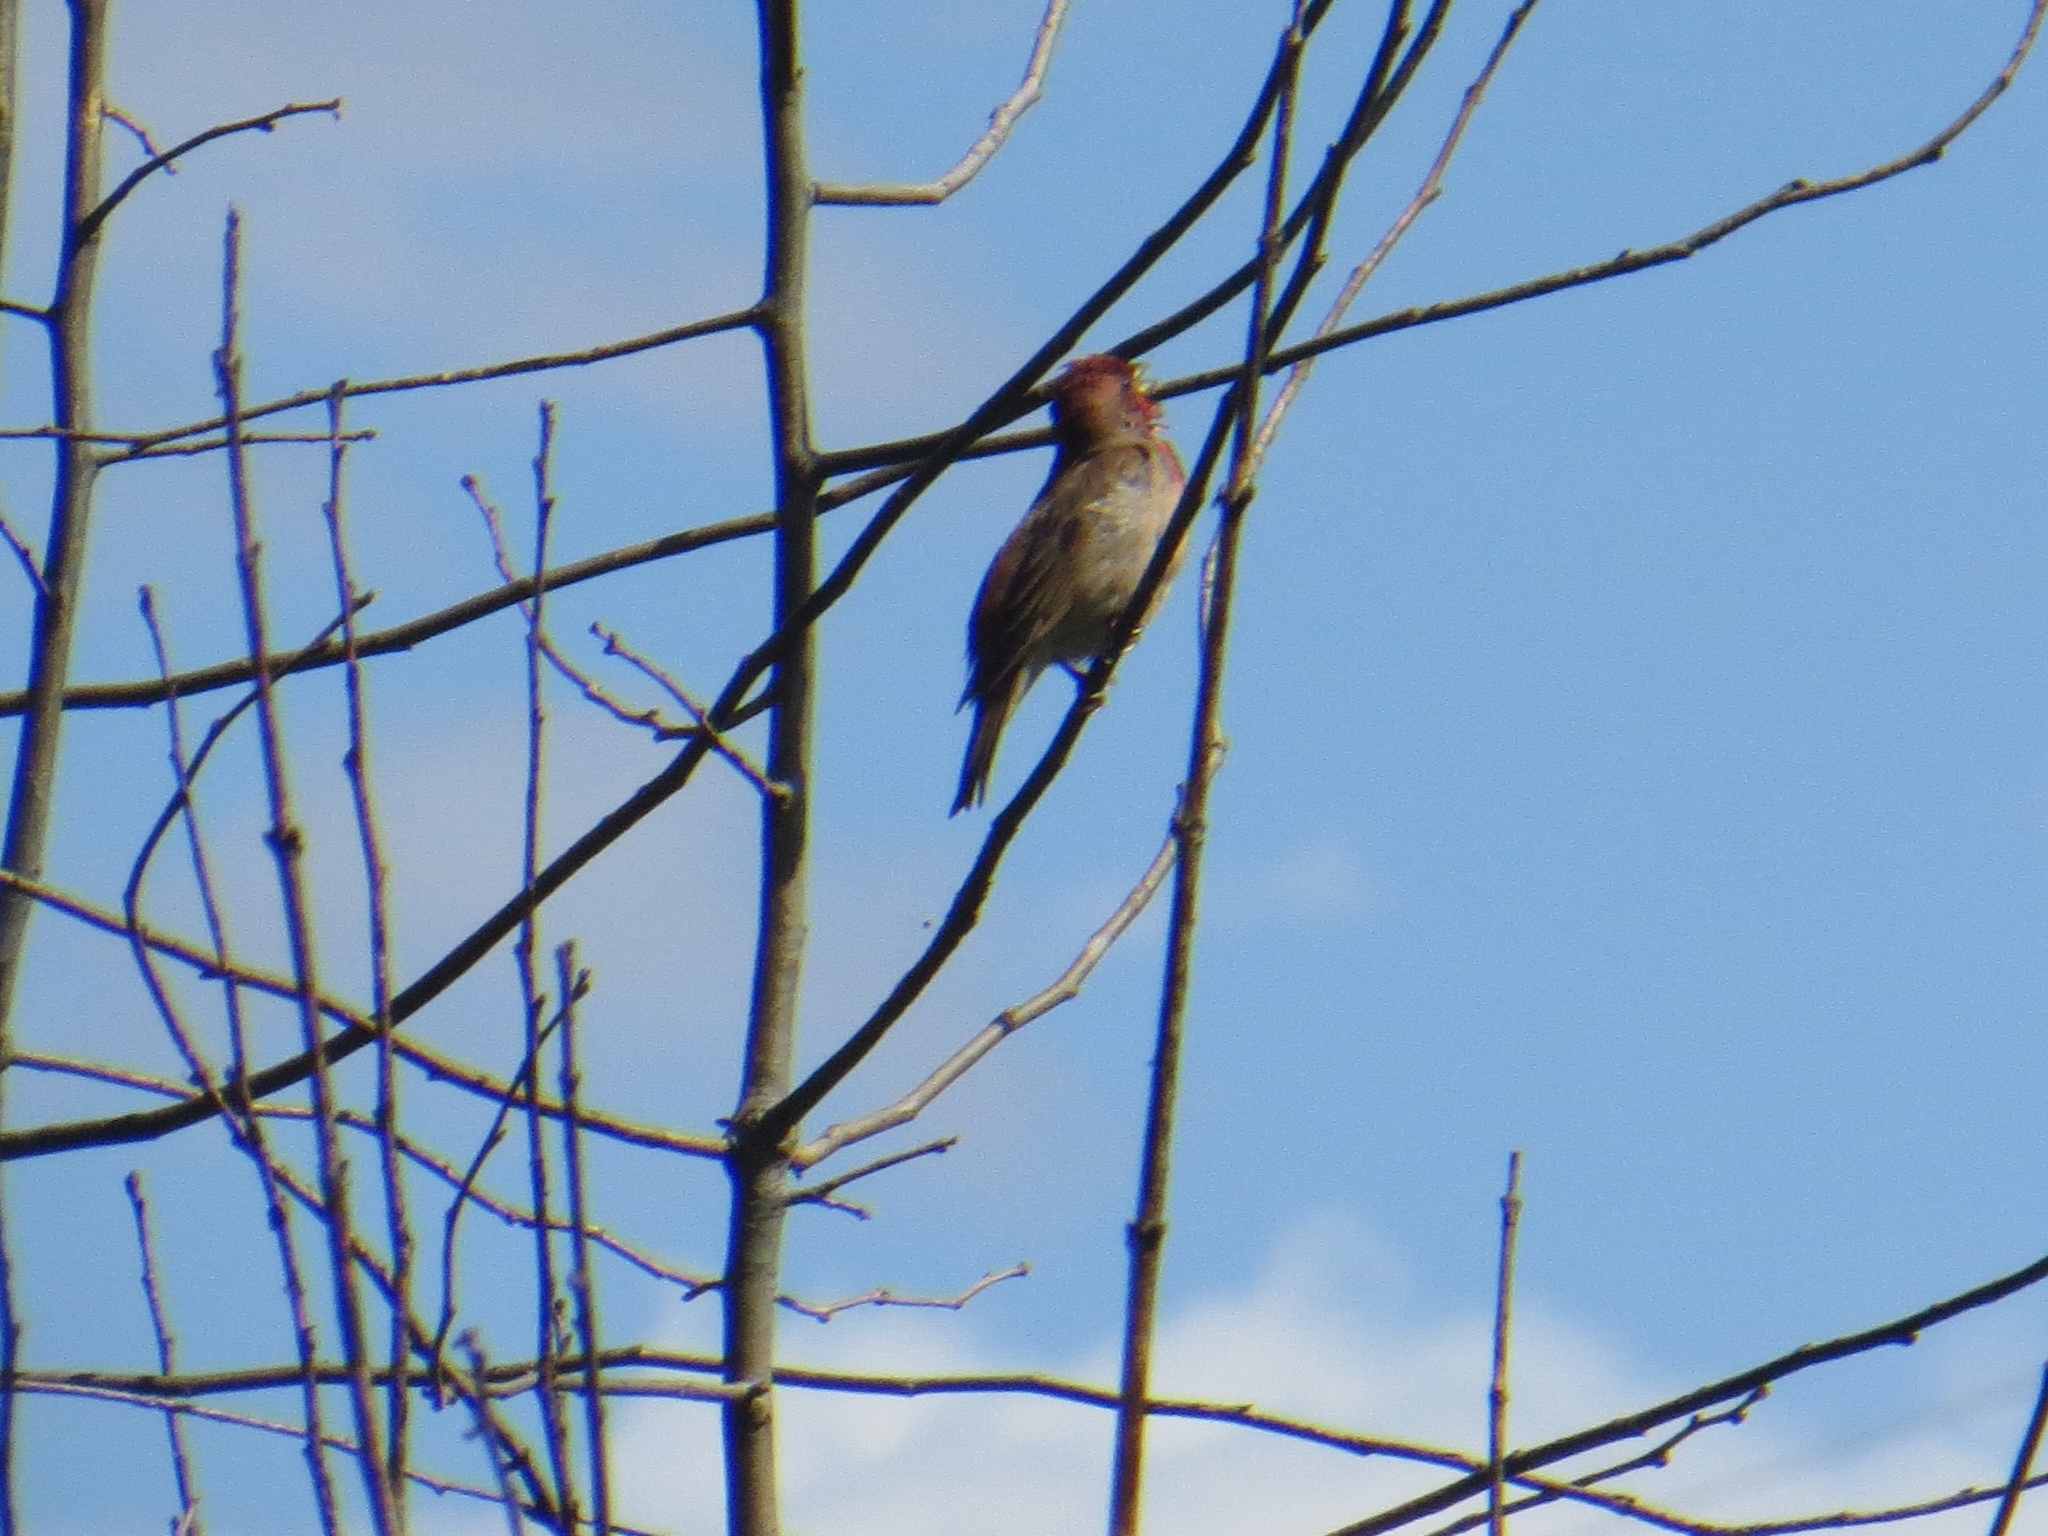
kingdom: Animalia
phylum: Chordata
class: Aves
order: Passeriformes
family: Fringillidae
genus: Carpodacus
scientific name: Carpodacus erythrinus
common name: Common rosefinch
